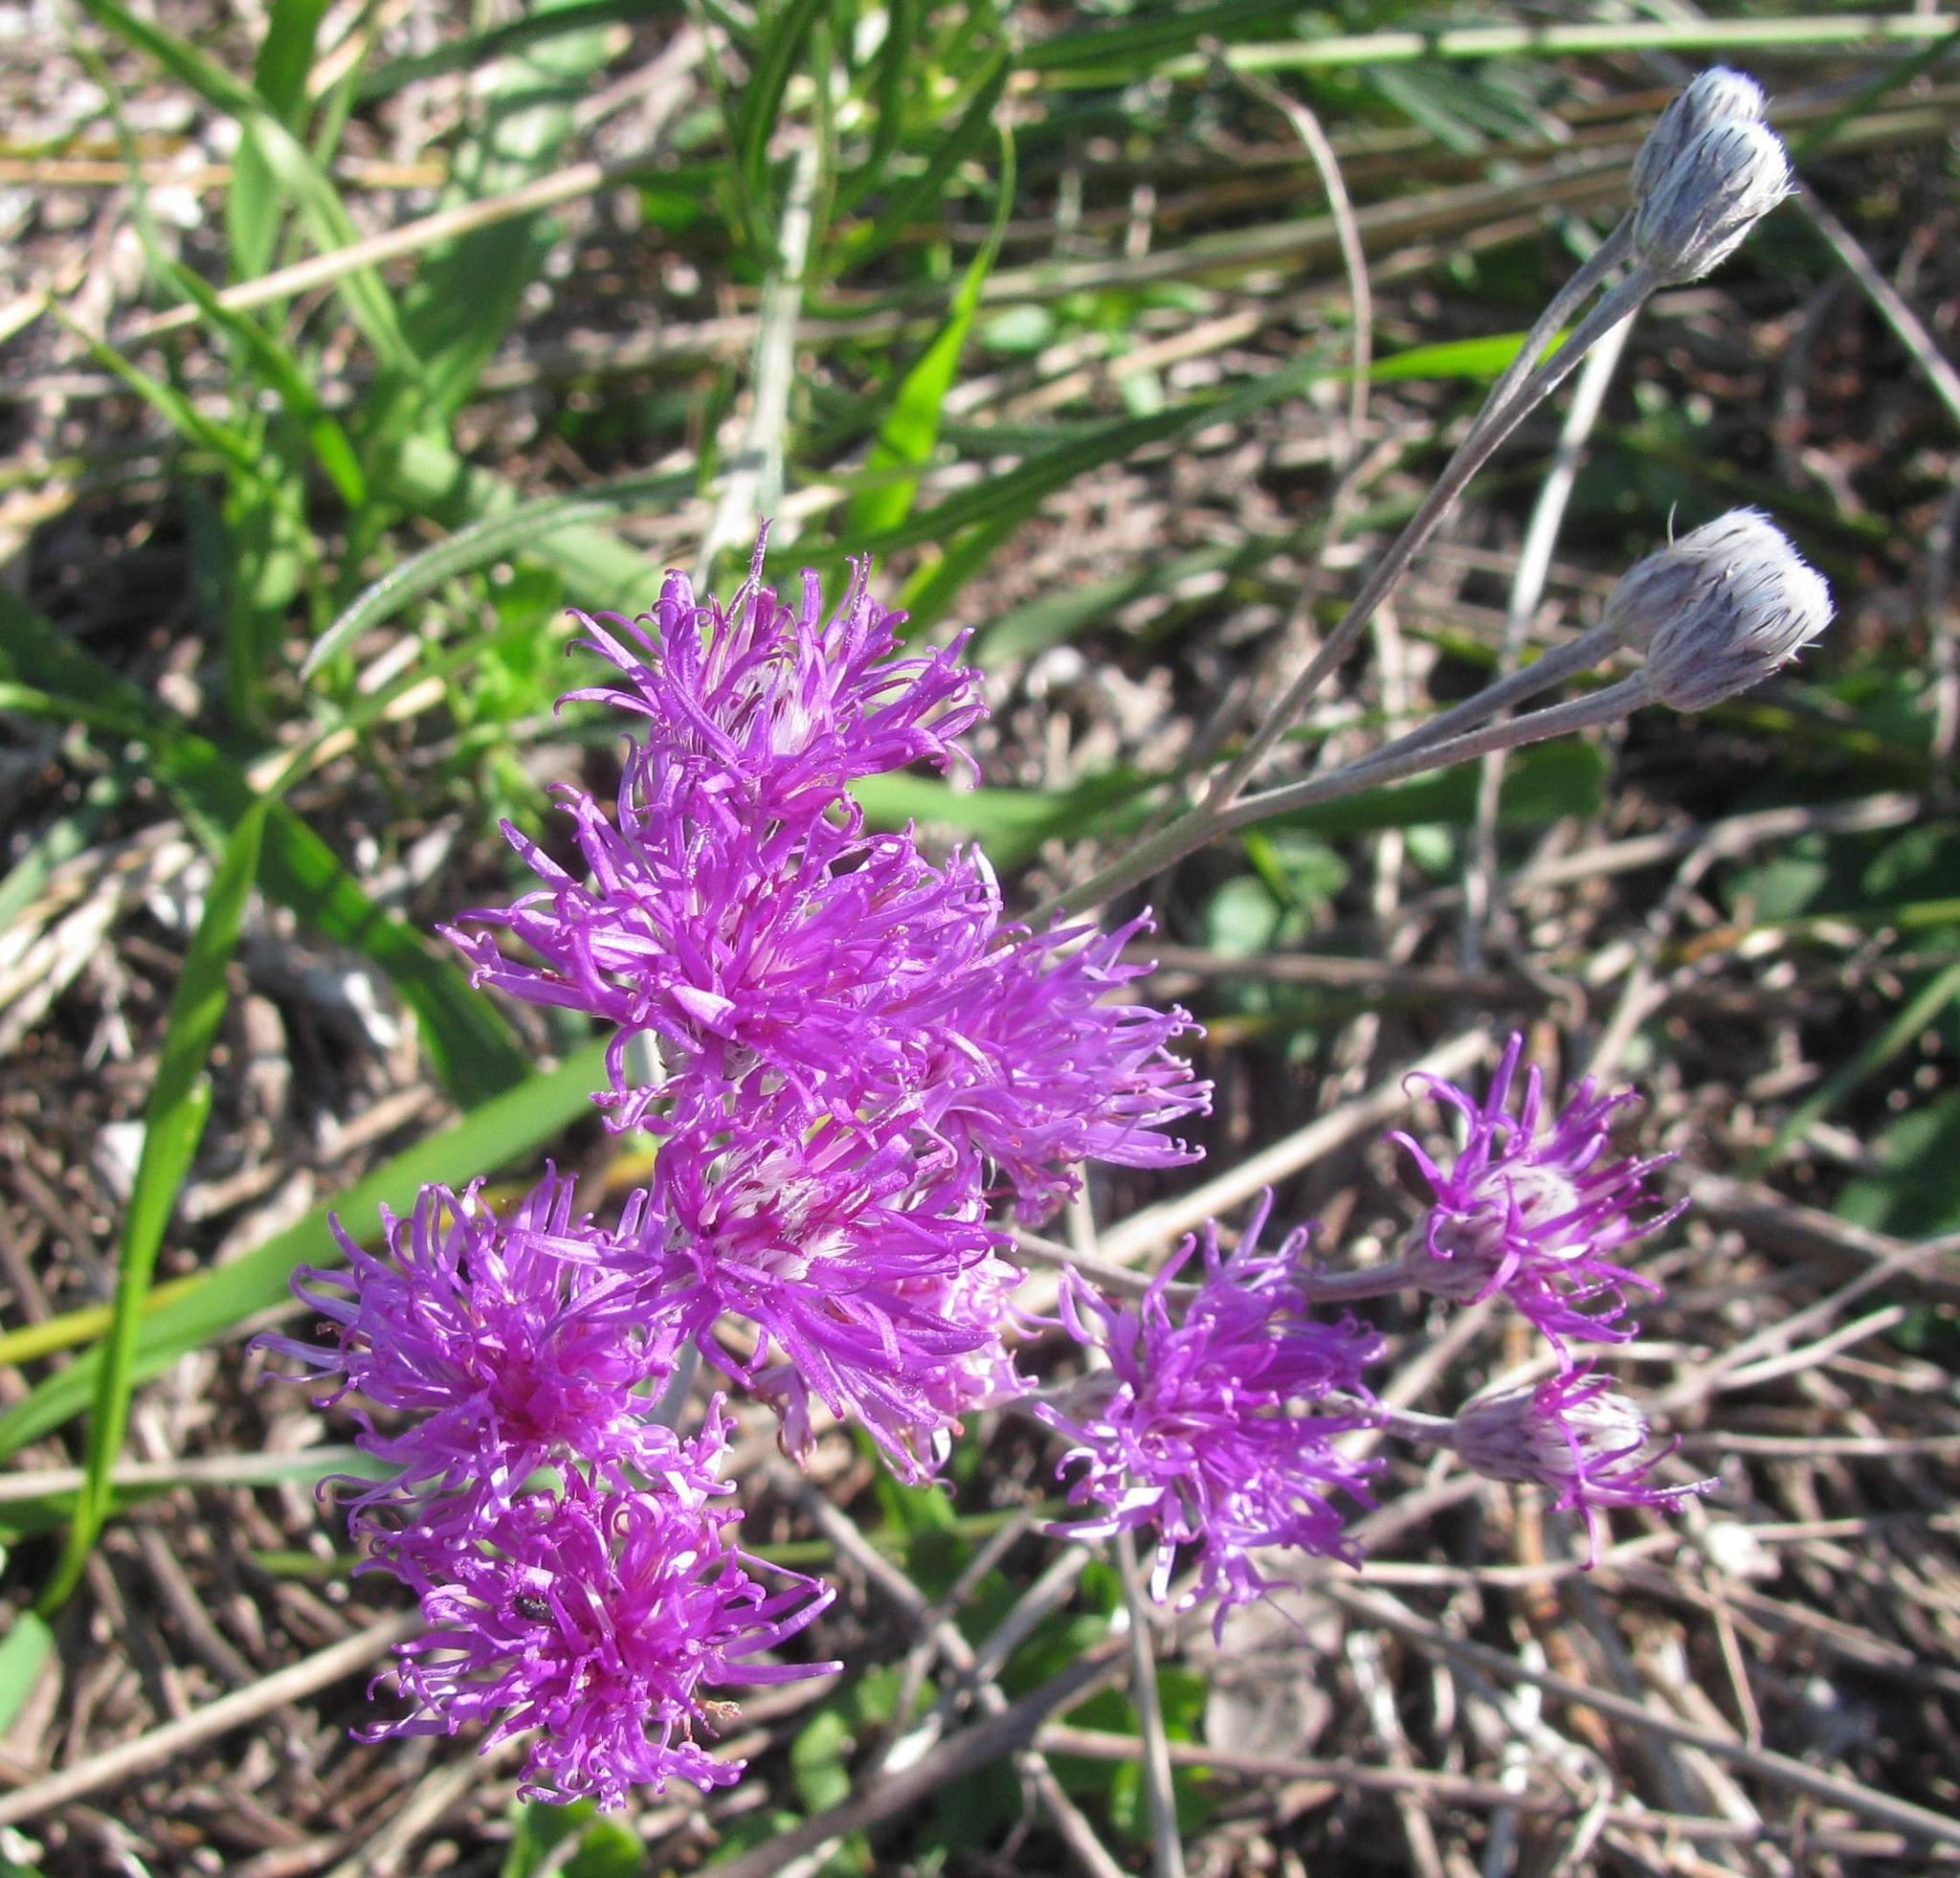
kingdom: Plantae
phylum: Tracheophyta
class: Magnoliopsida
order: Asterales
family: Asteraceae
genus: Hilliardiella
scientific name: Hilliardiella capensis
